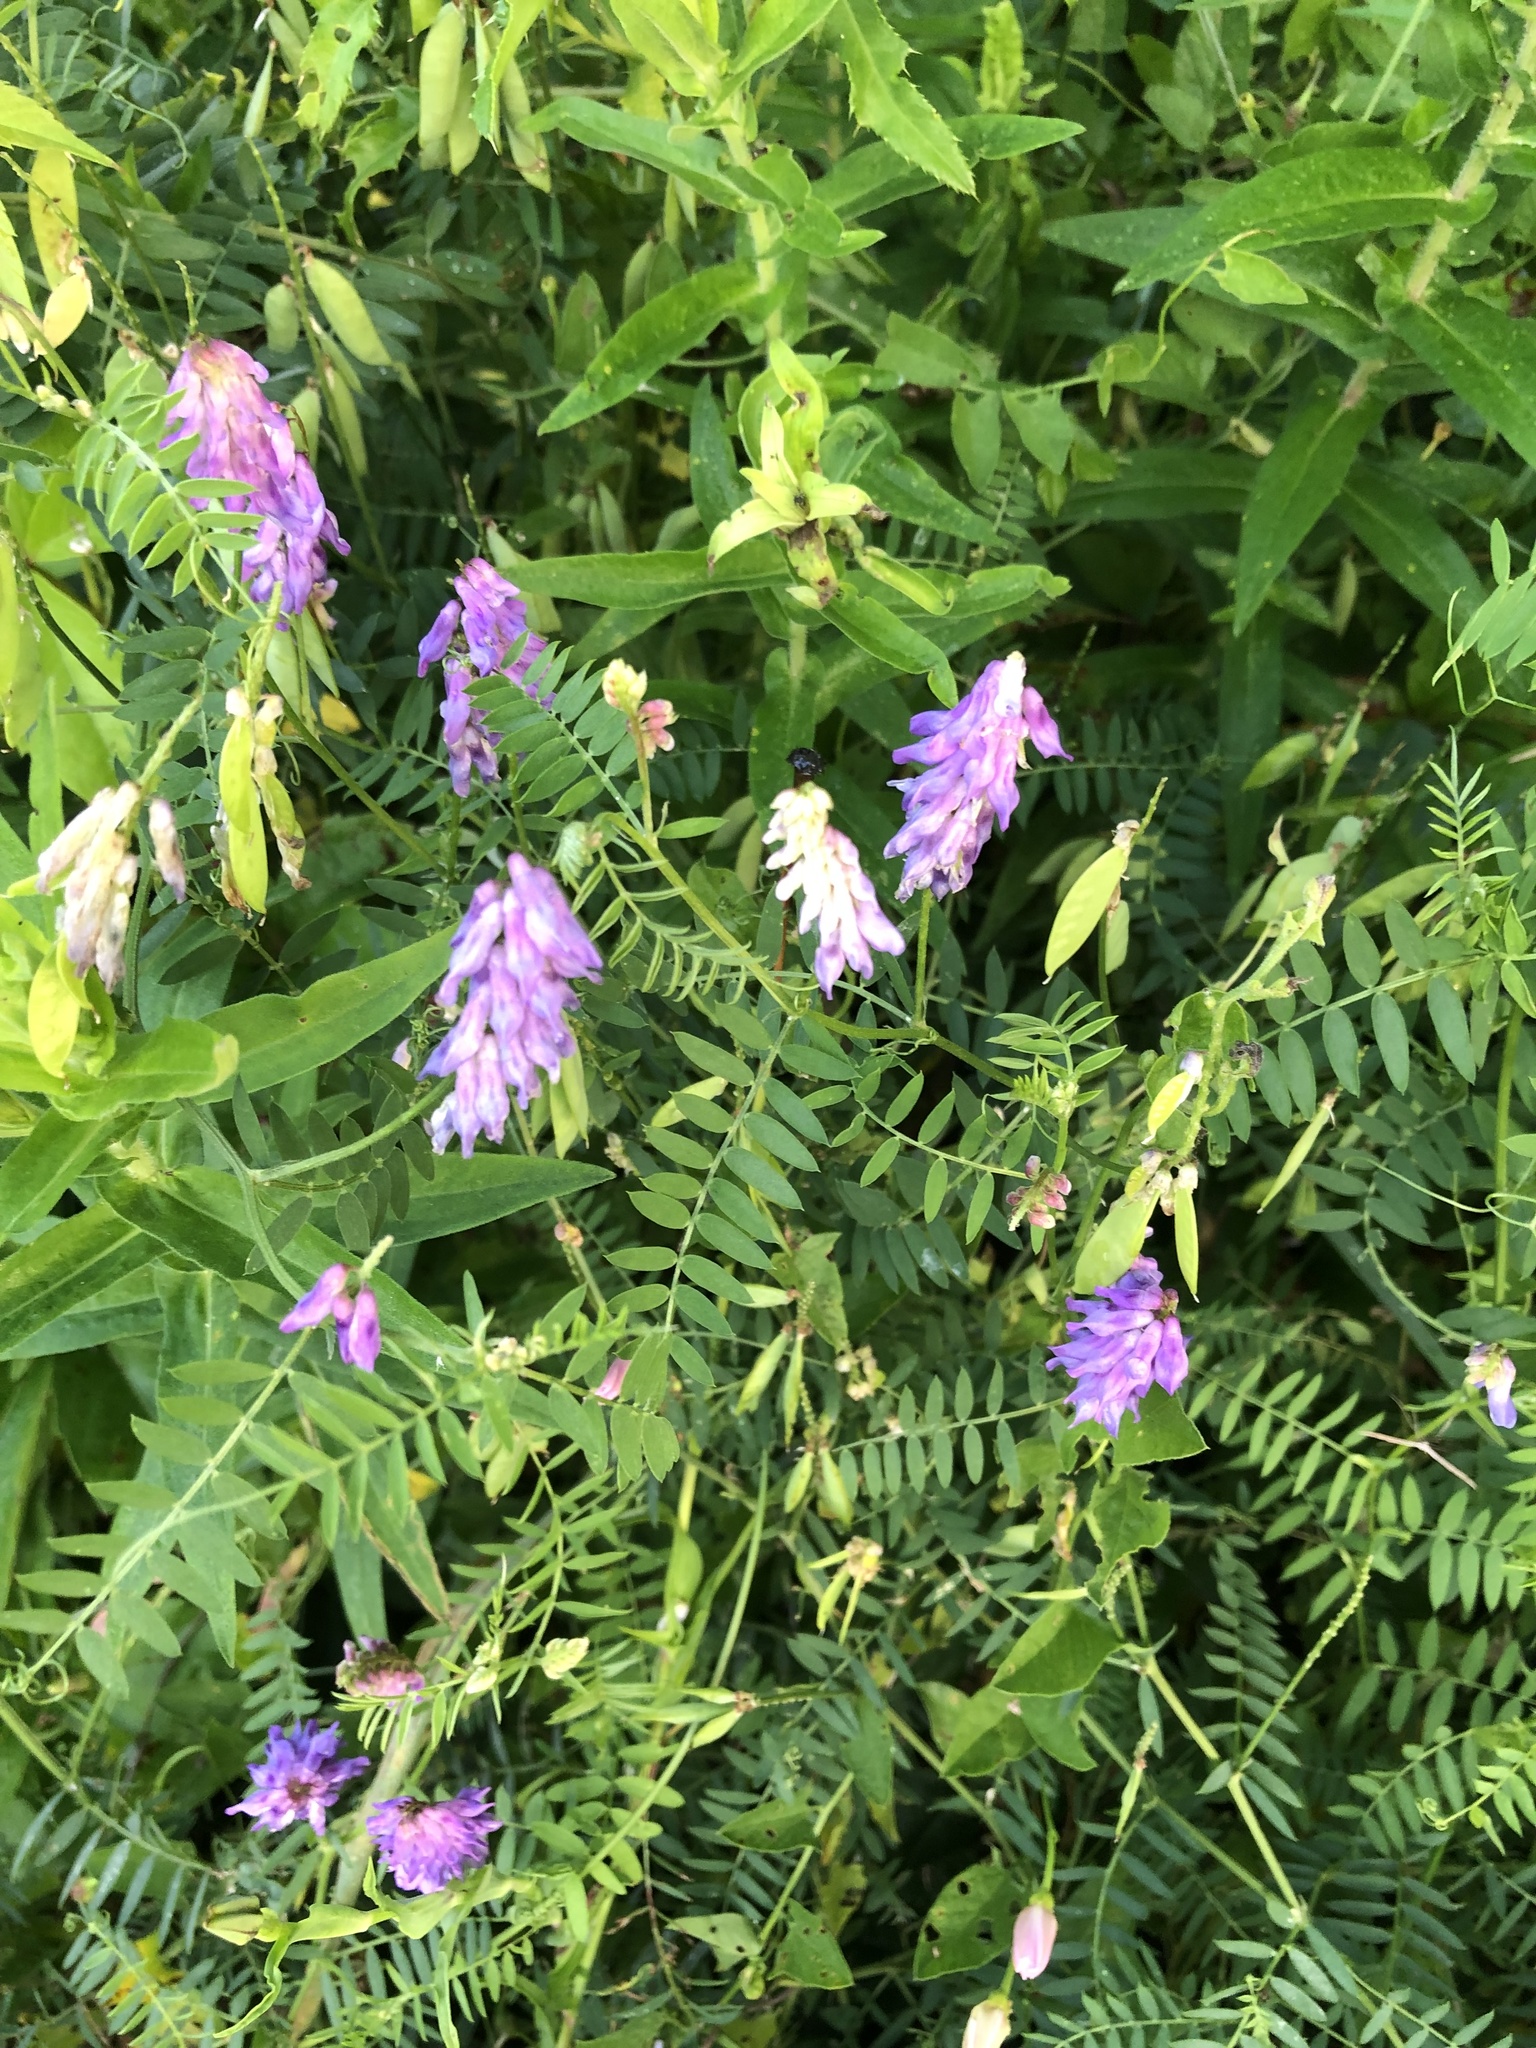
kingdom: Plantae
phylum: Tracheophyta
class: Magnoliopsida
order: Fabales
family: Fabaceae
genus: Vicia
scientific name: Vicia cracca
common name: Bird vetch
